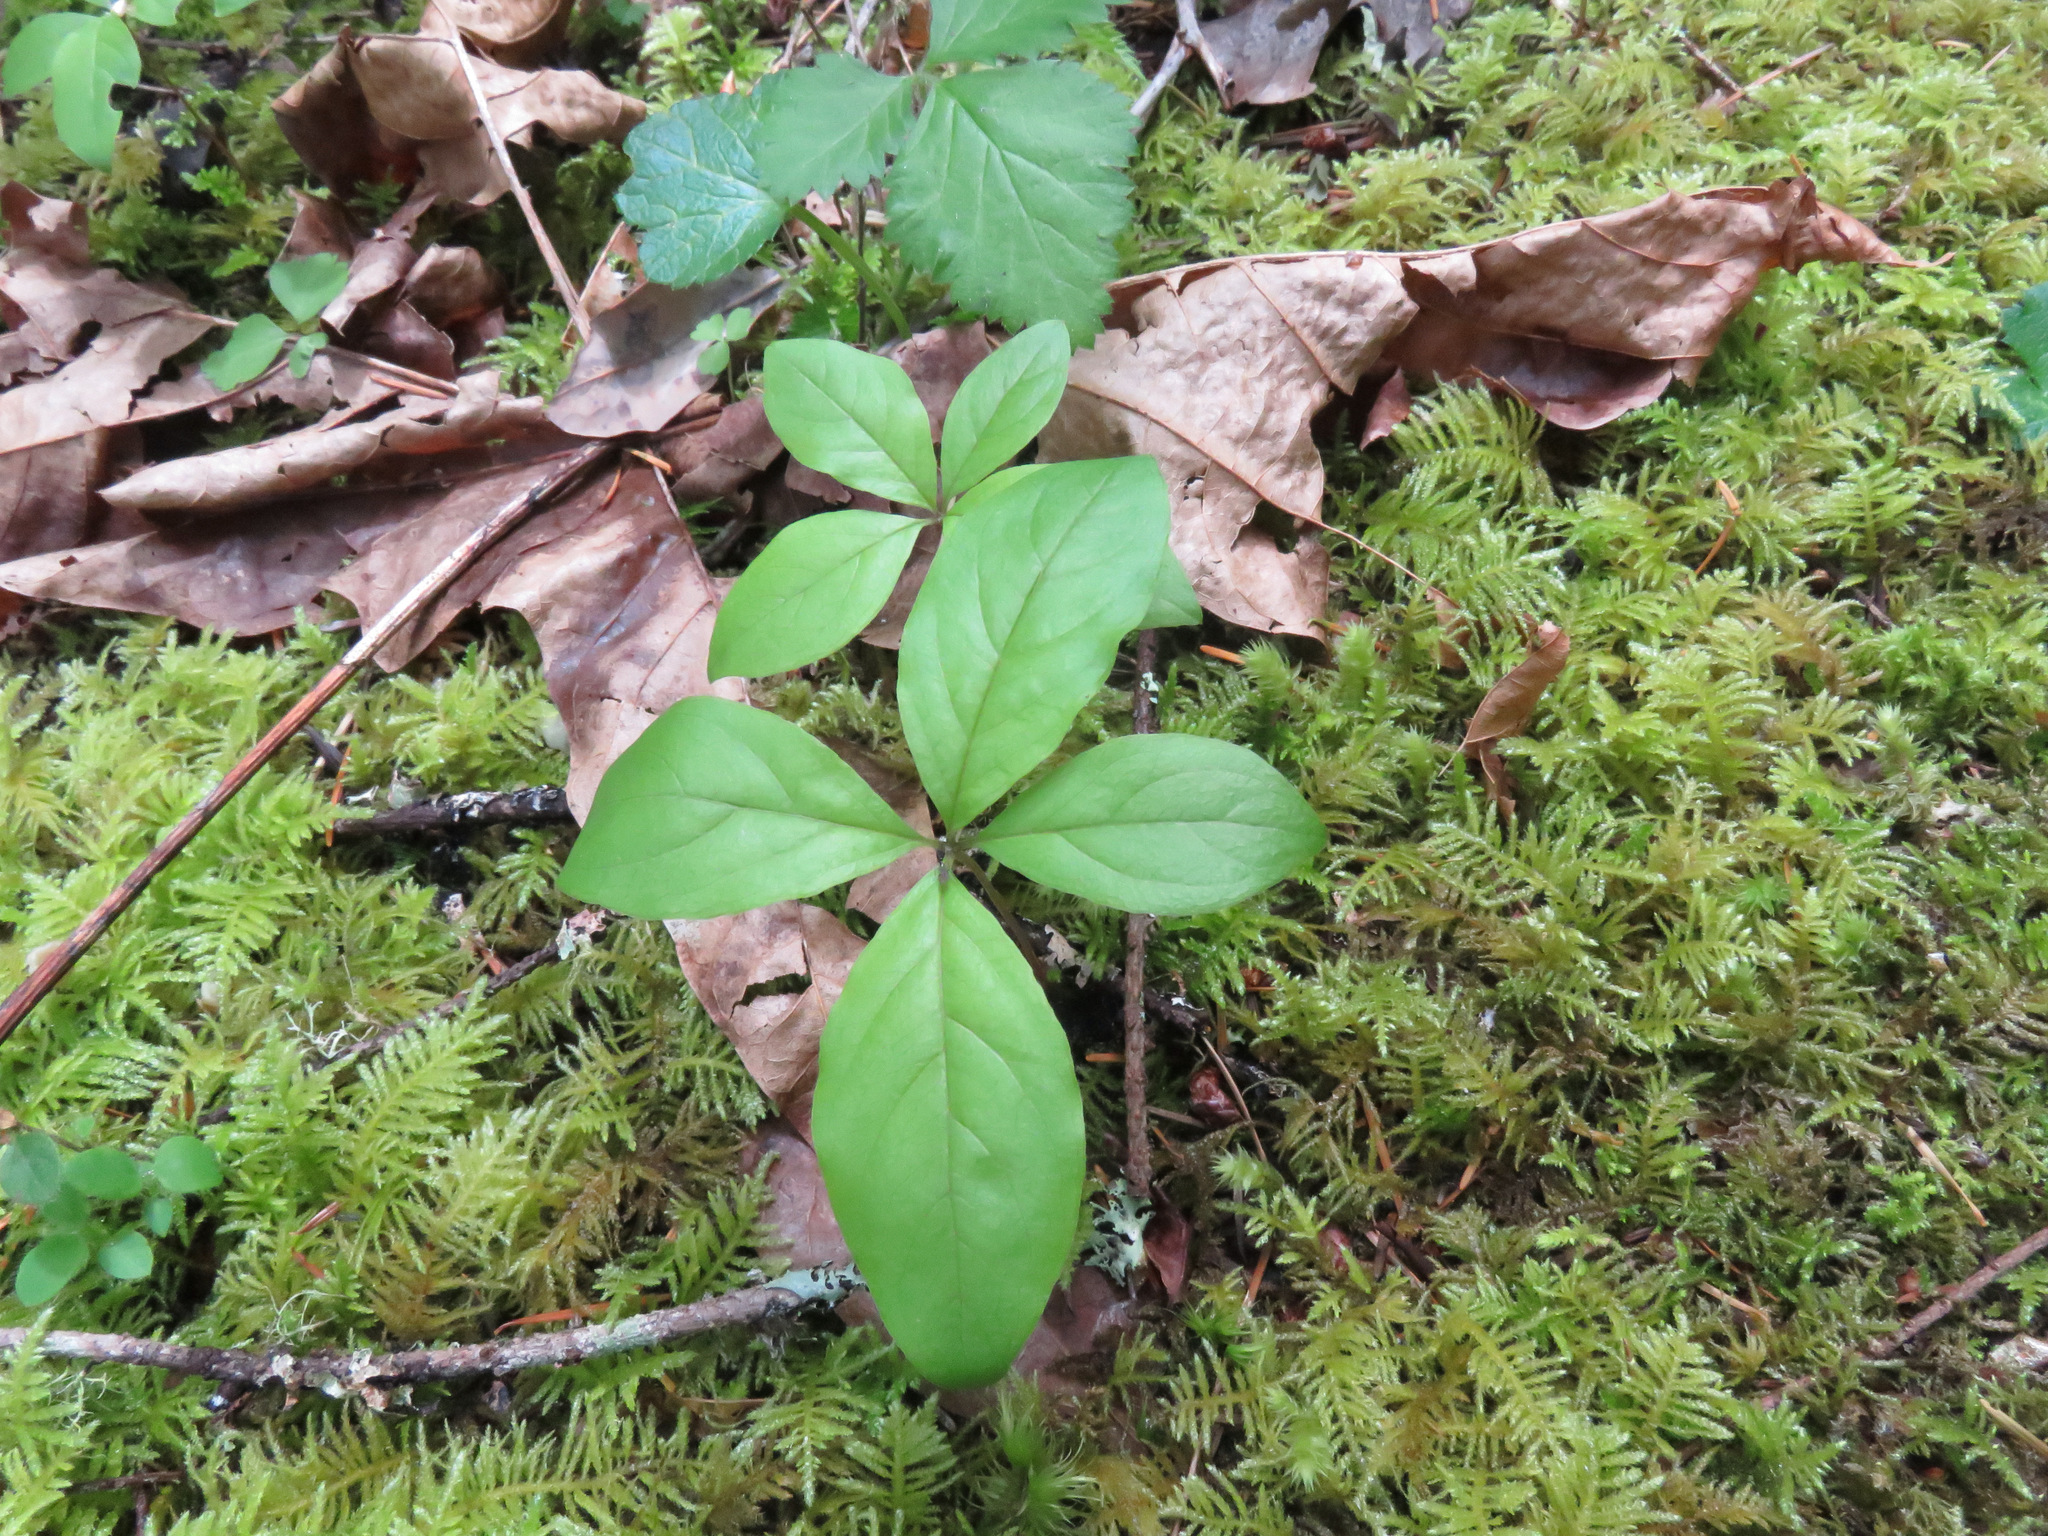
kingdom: Plantae
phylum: Tracheophyta
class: Magnoliopsida
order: Ericales
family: Primulaceae
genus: Lysimachia
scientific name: Lysimachia latifolia
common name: Pacific starflower
